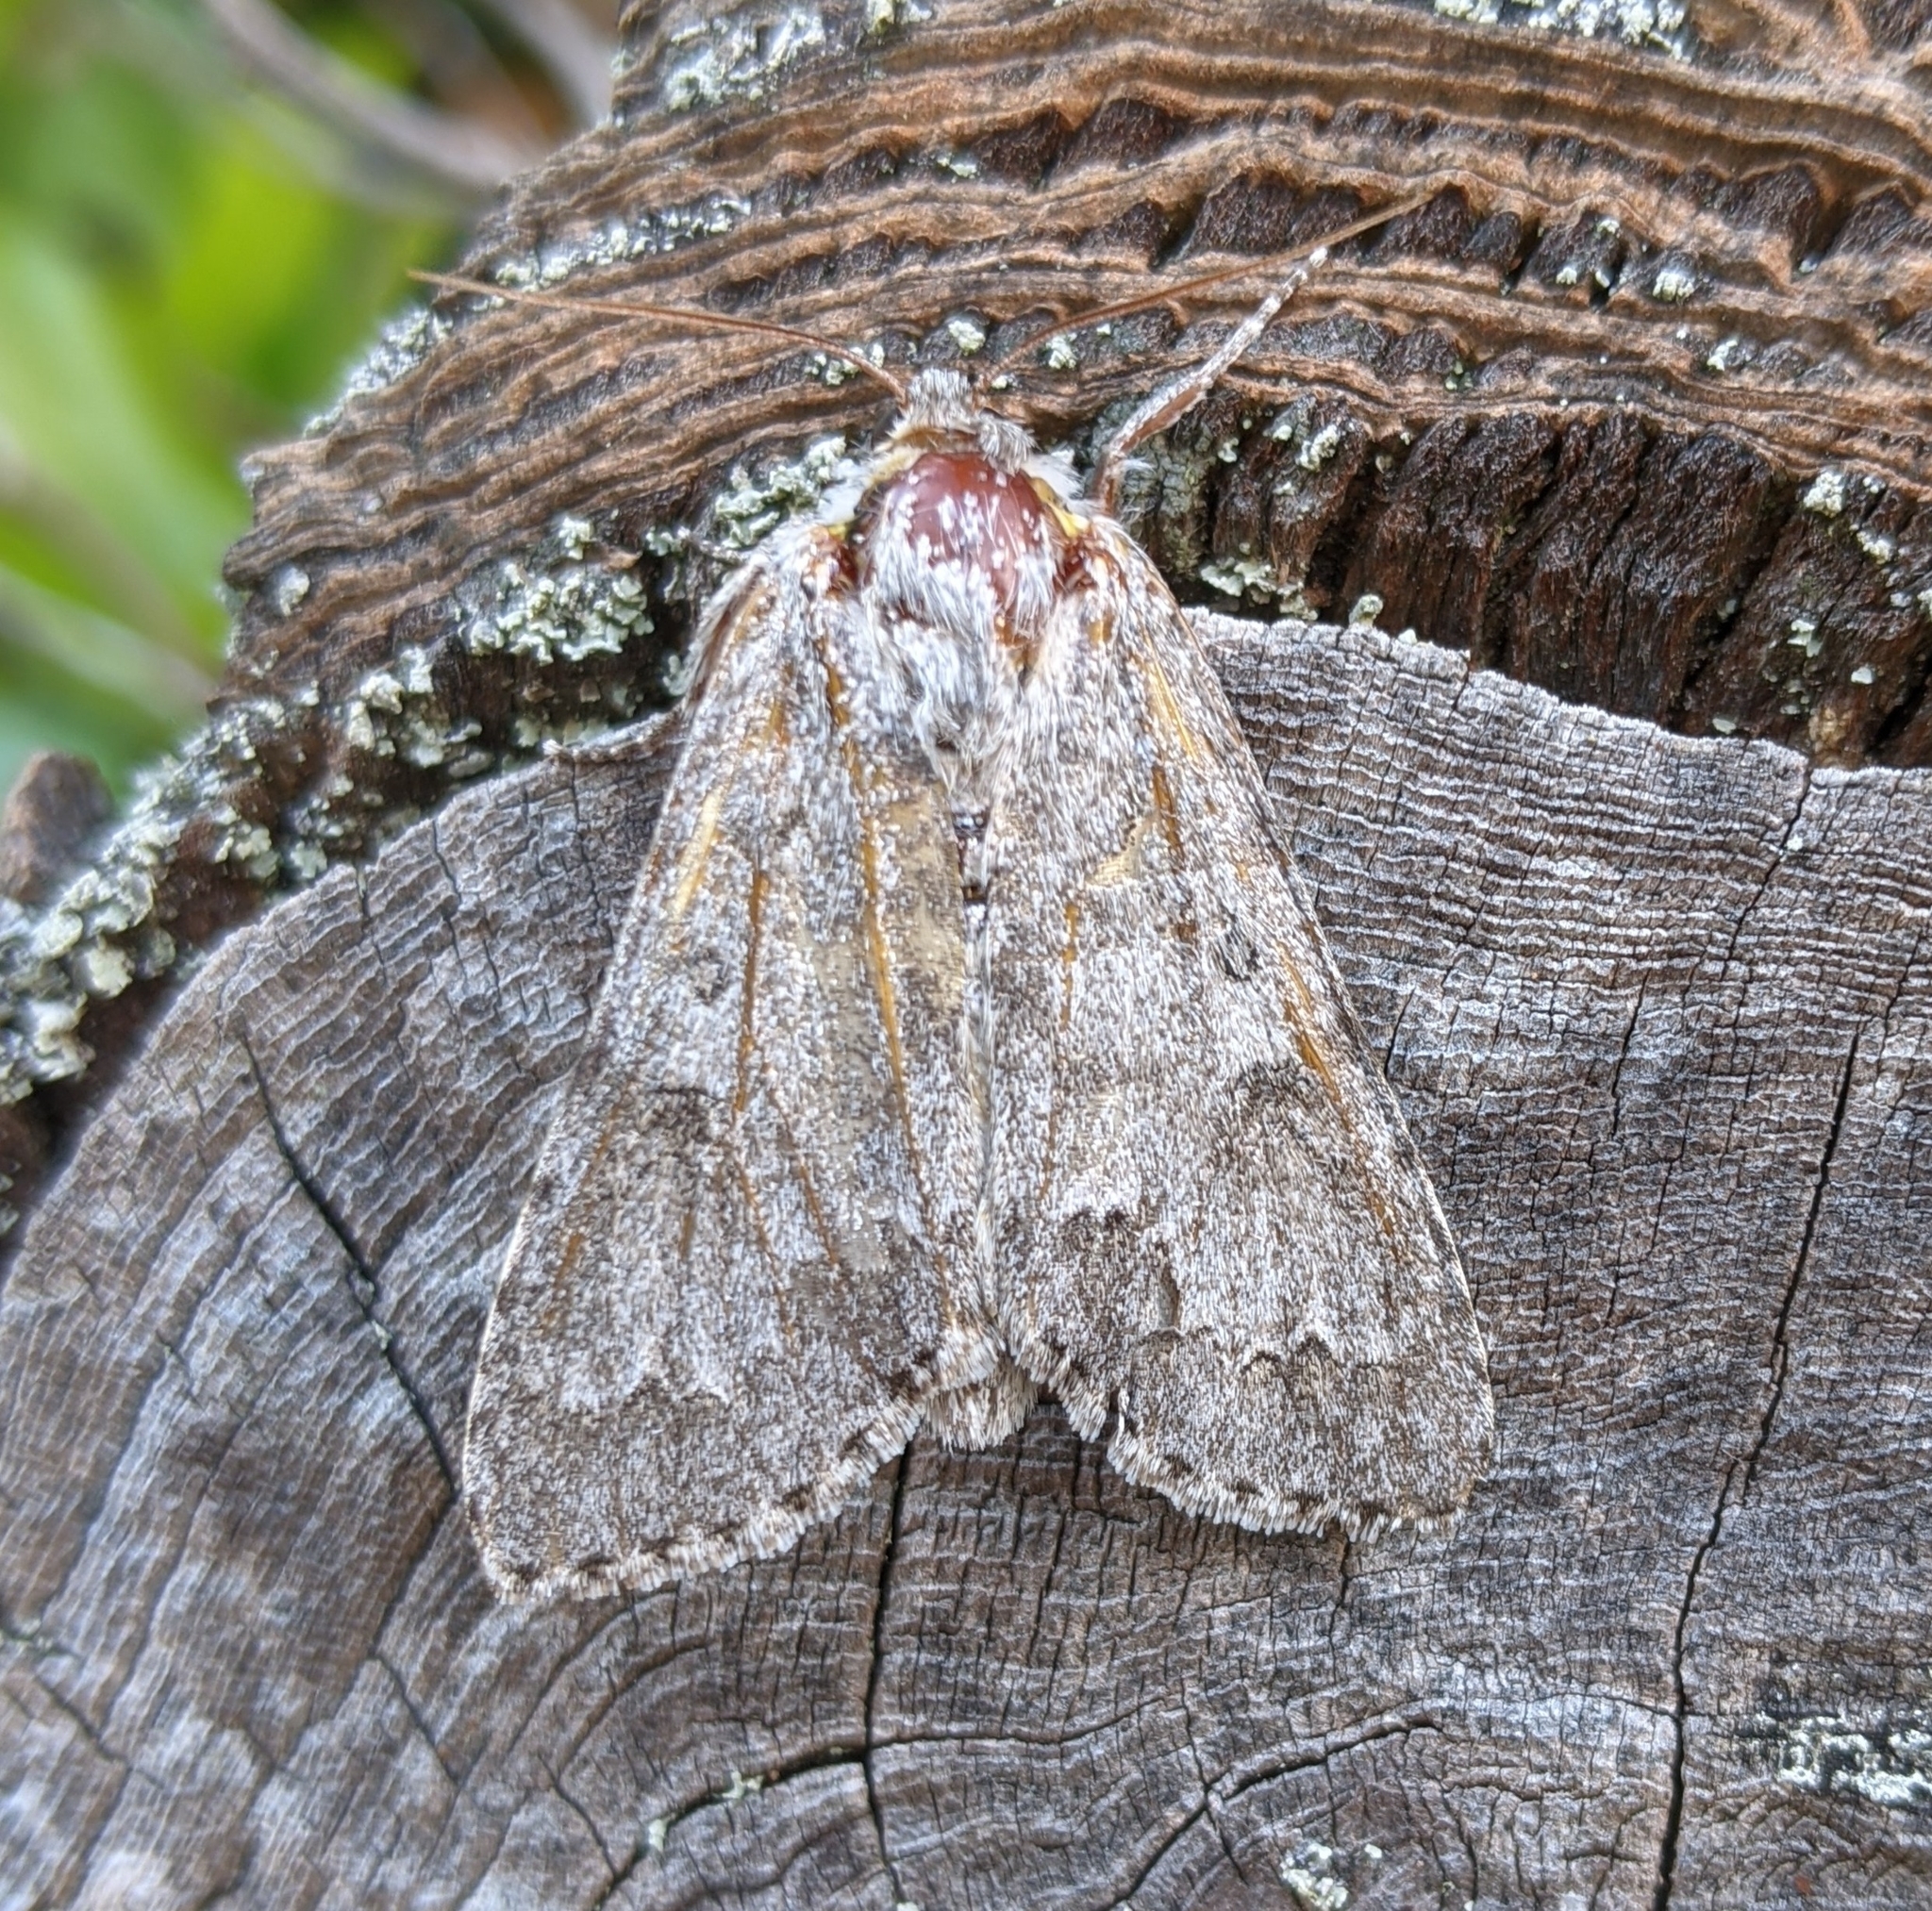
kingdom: Animalia
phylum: Arthropoda
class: Insecta
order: Lepidoptera
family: Noctuidae
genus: Acronicta
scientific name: Acronicta insita
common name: Large gray dagger
